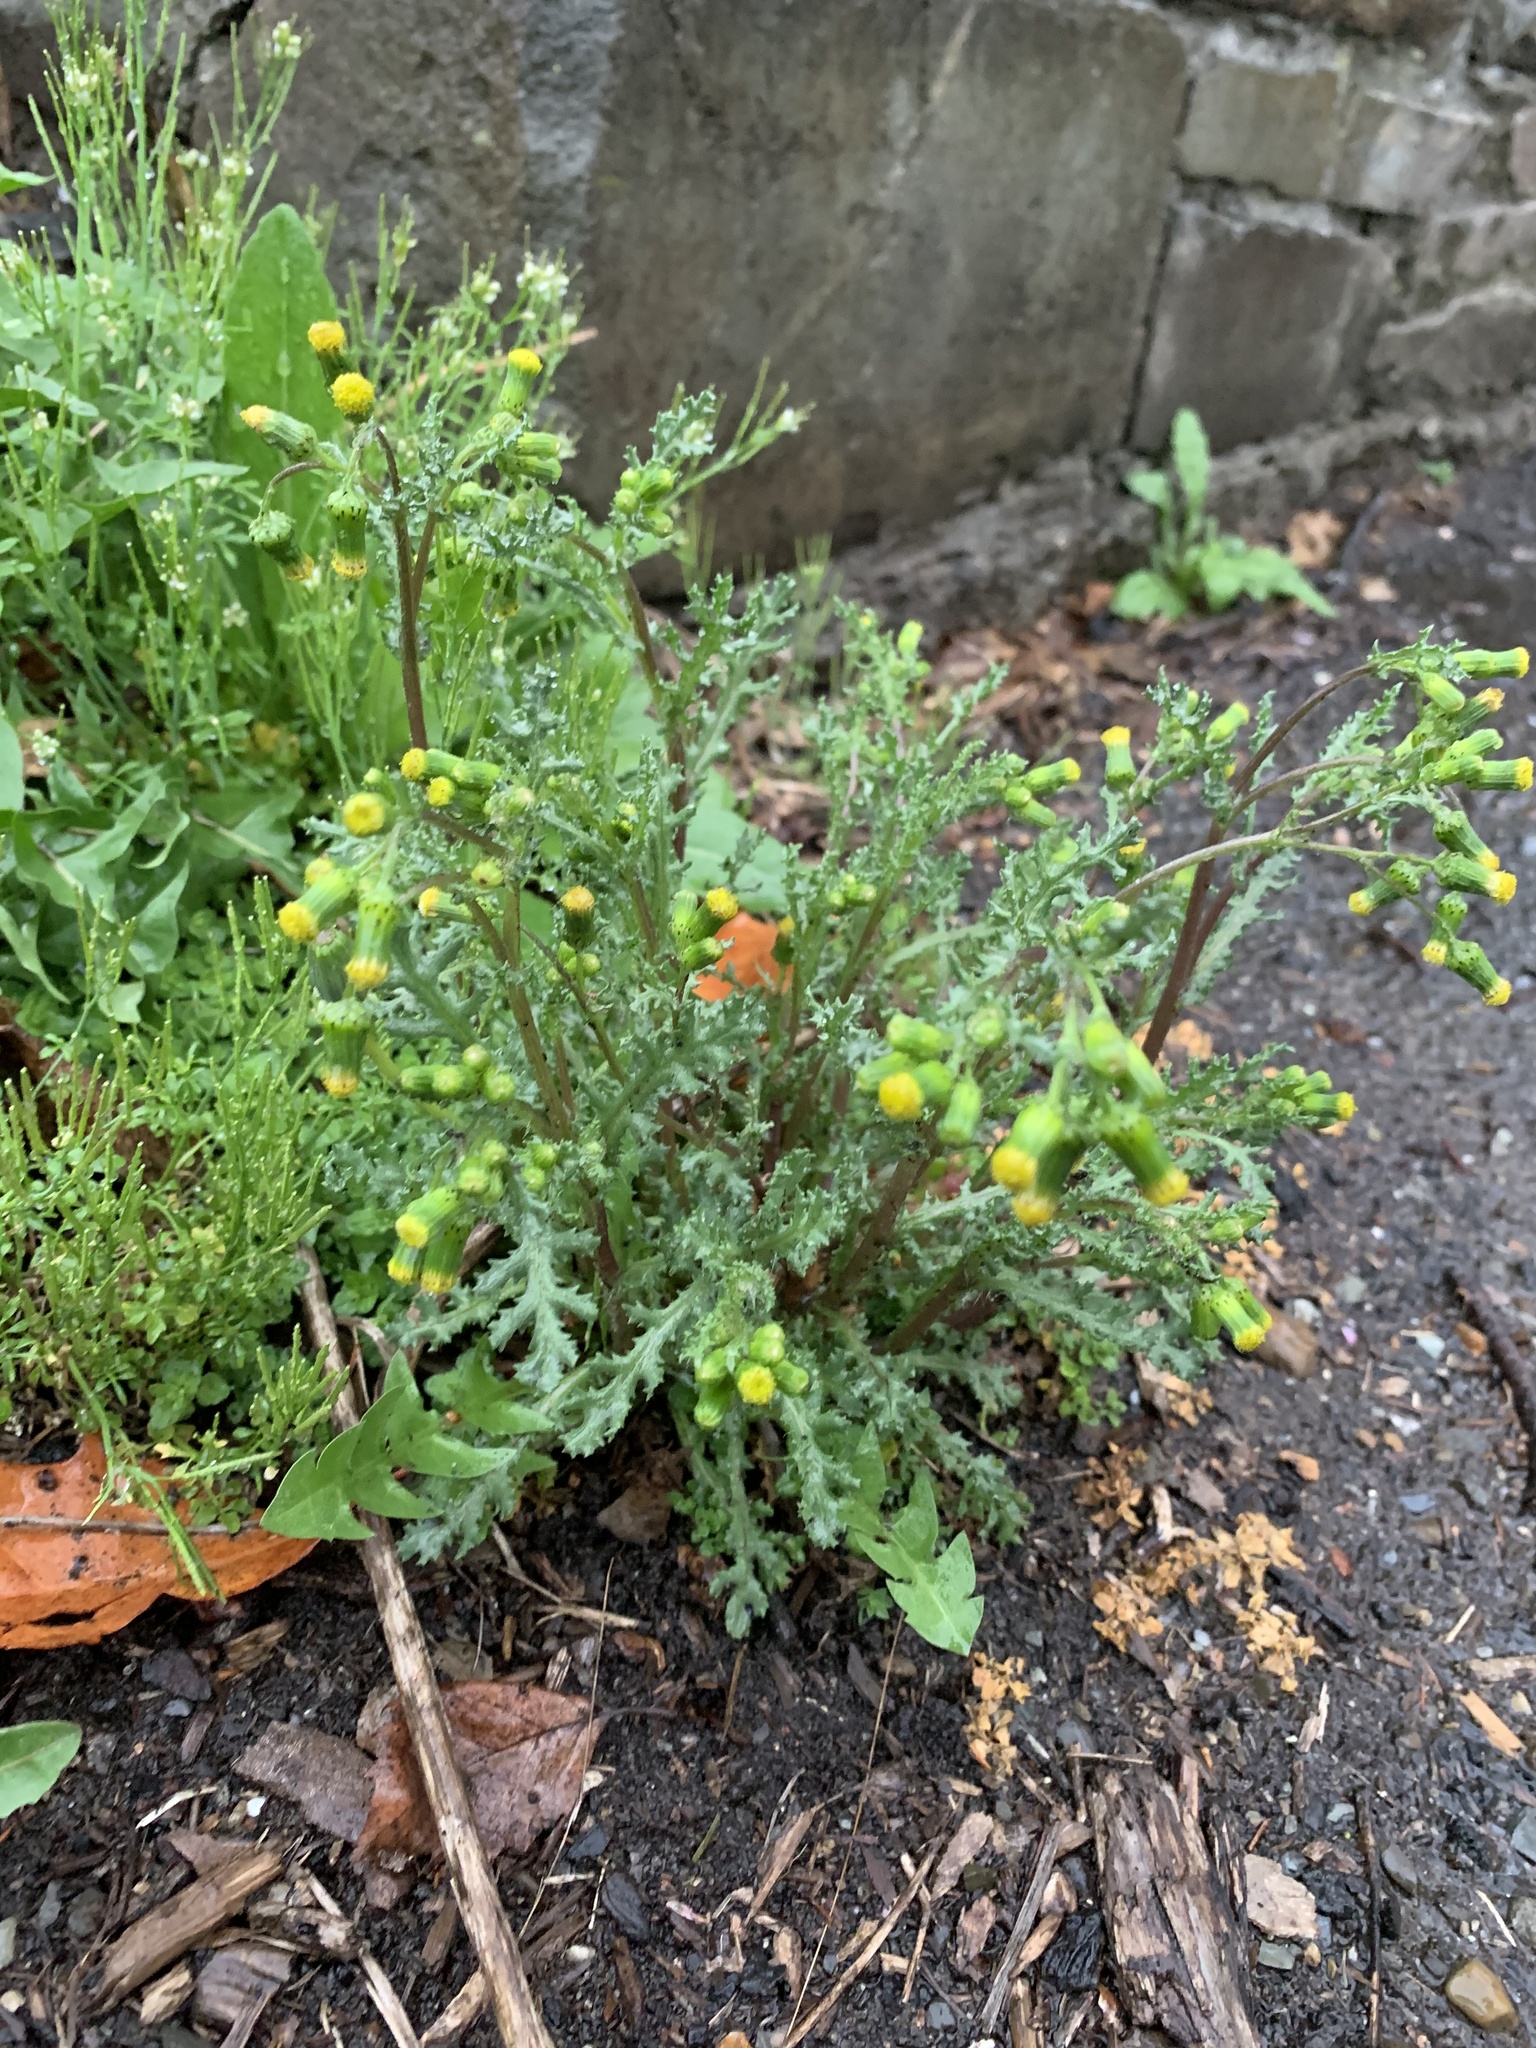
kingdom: Plantae
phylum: Tracheophyta
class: Magnoliopsida
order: Asterales
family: Asteraceae
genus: Senecio
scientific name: Senecio vulgaris
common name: Old-man-in-the-spring
